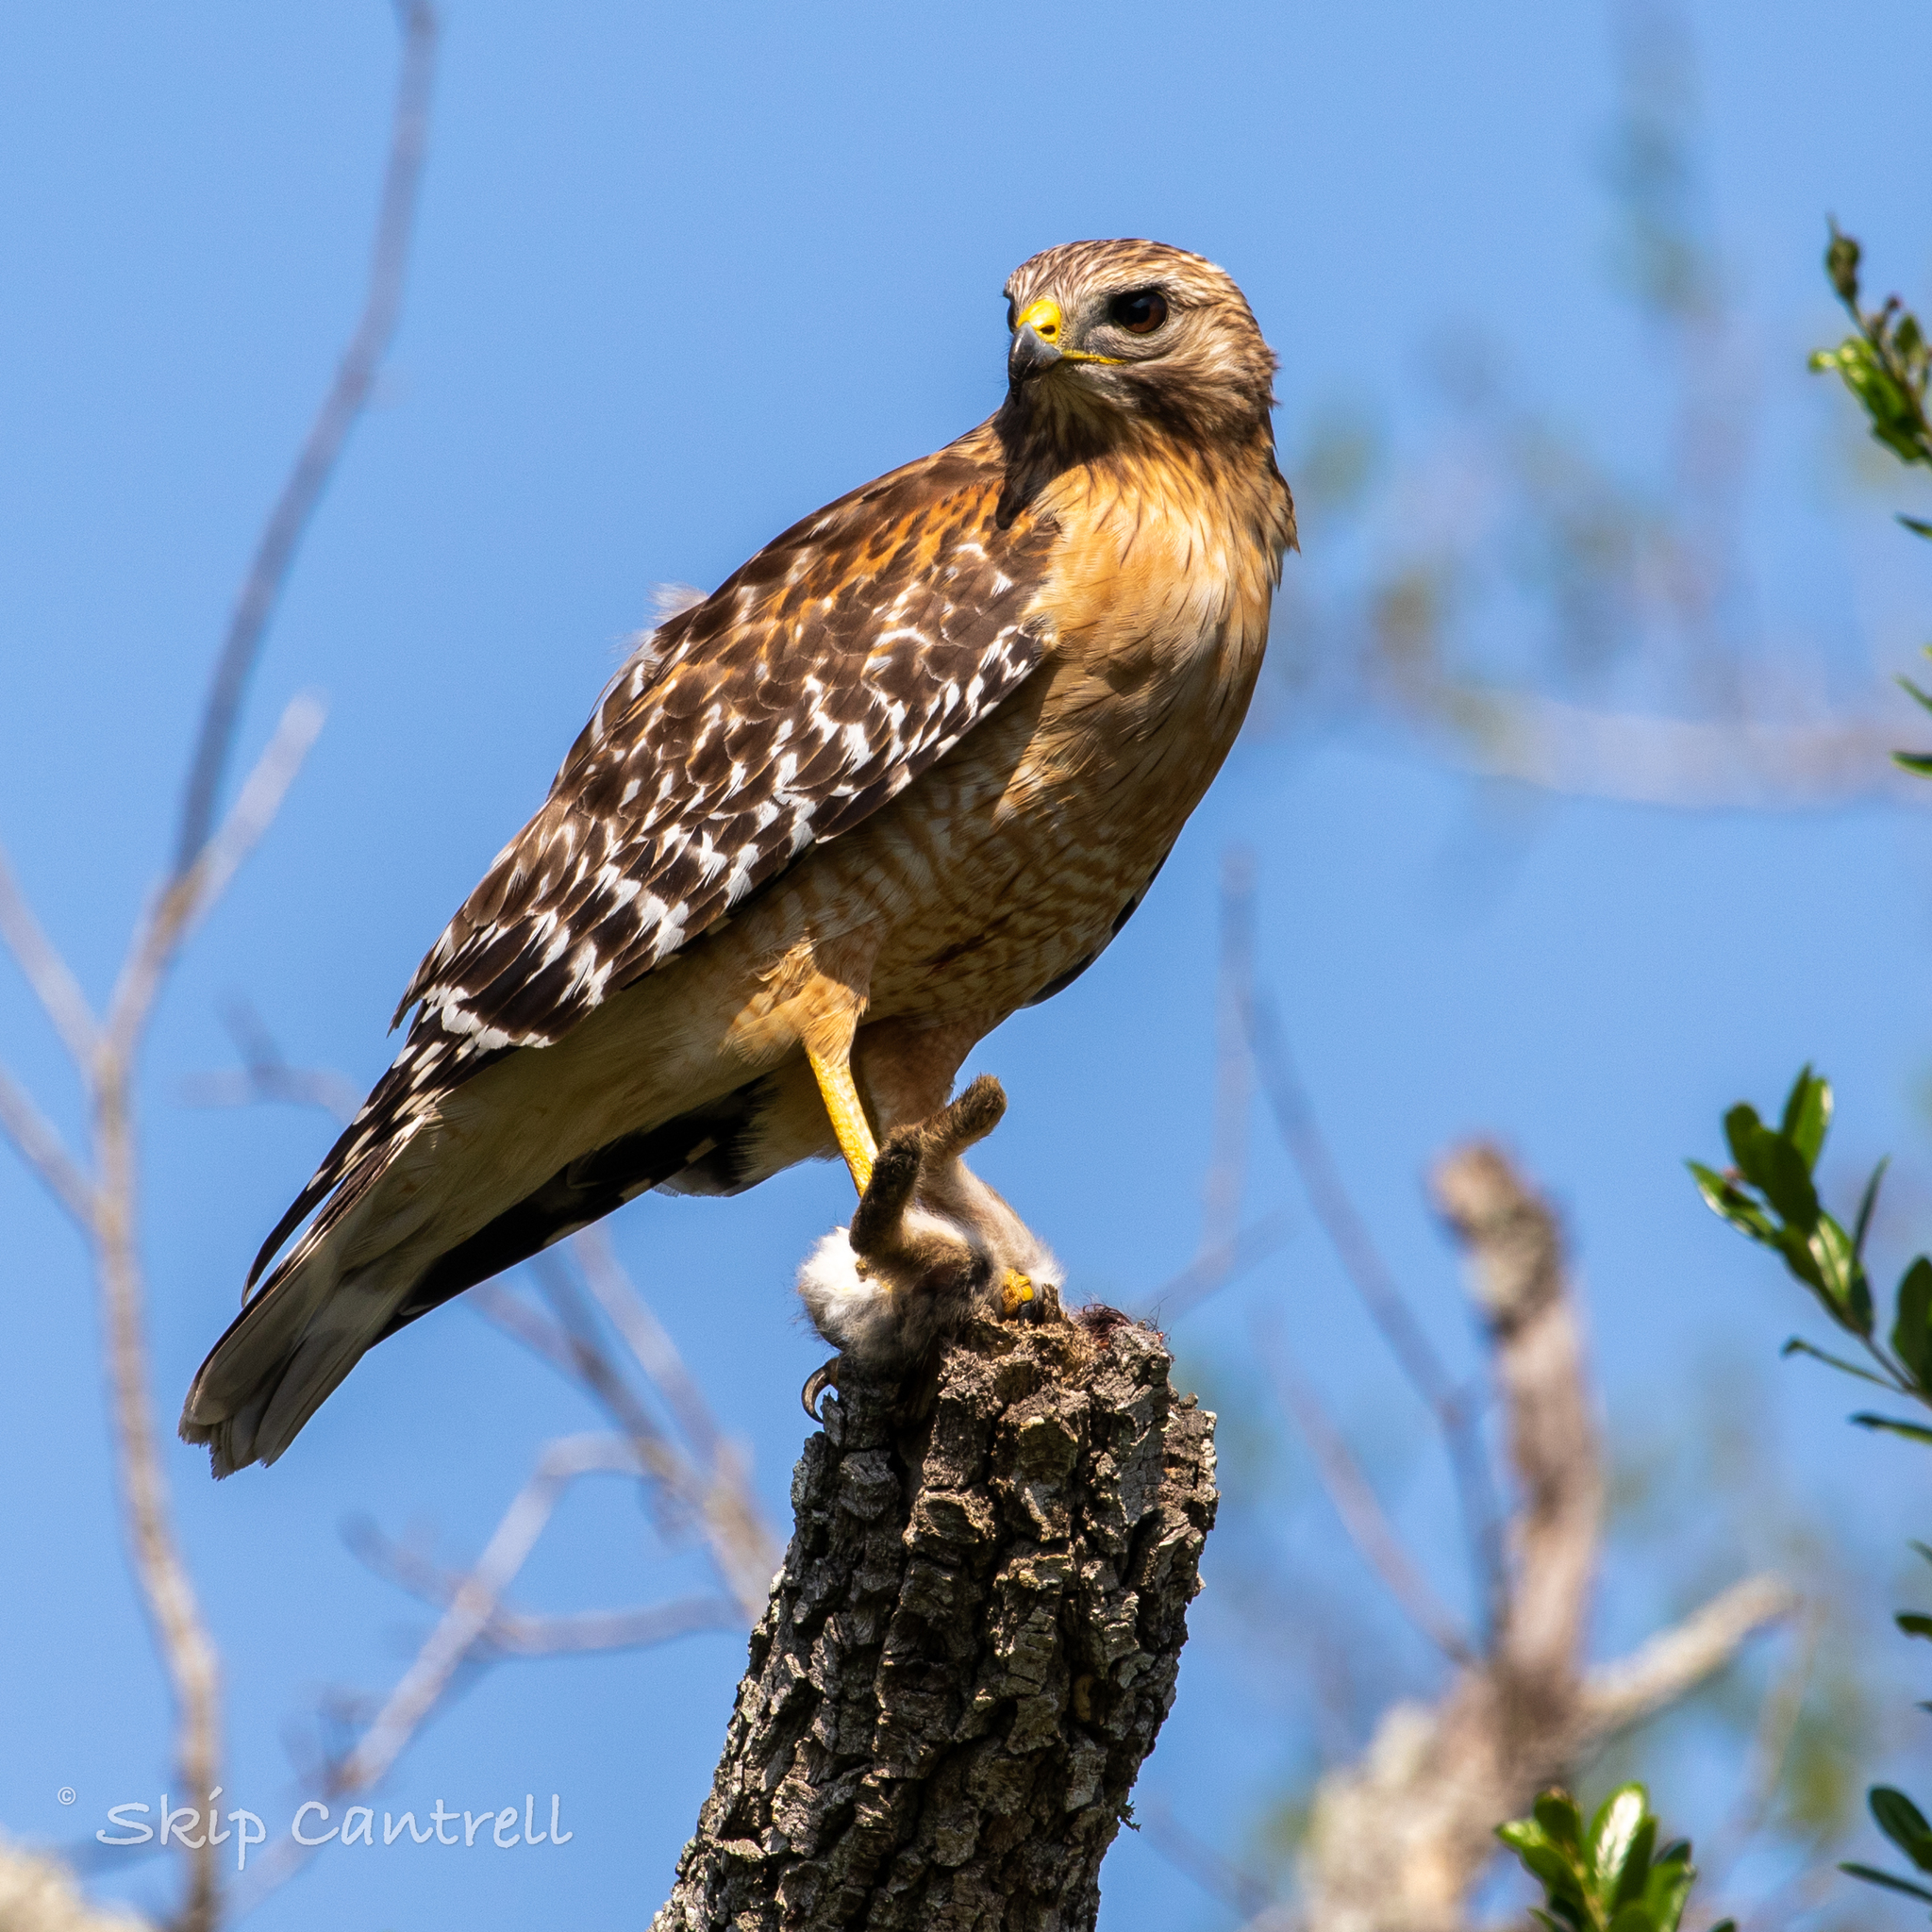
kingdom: Animalia
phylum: Chordata
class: Aves
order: Accipitriformes
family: Accipitridae
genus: Buteo
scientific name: Buteo lineatus
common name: Red-shouldered hawk
